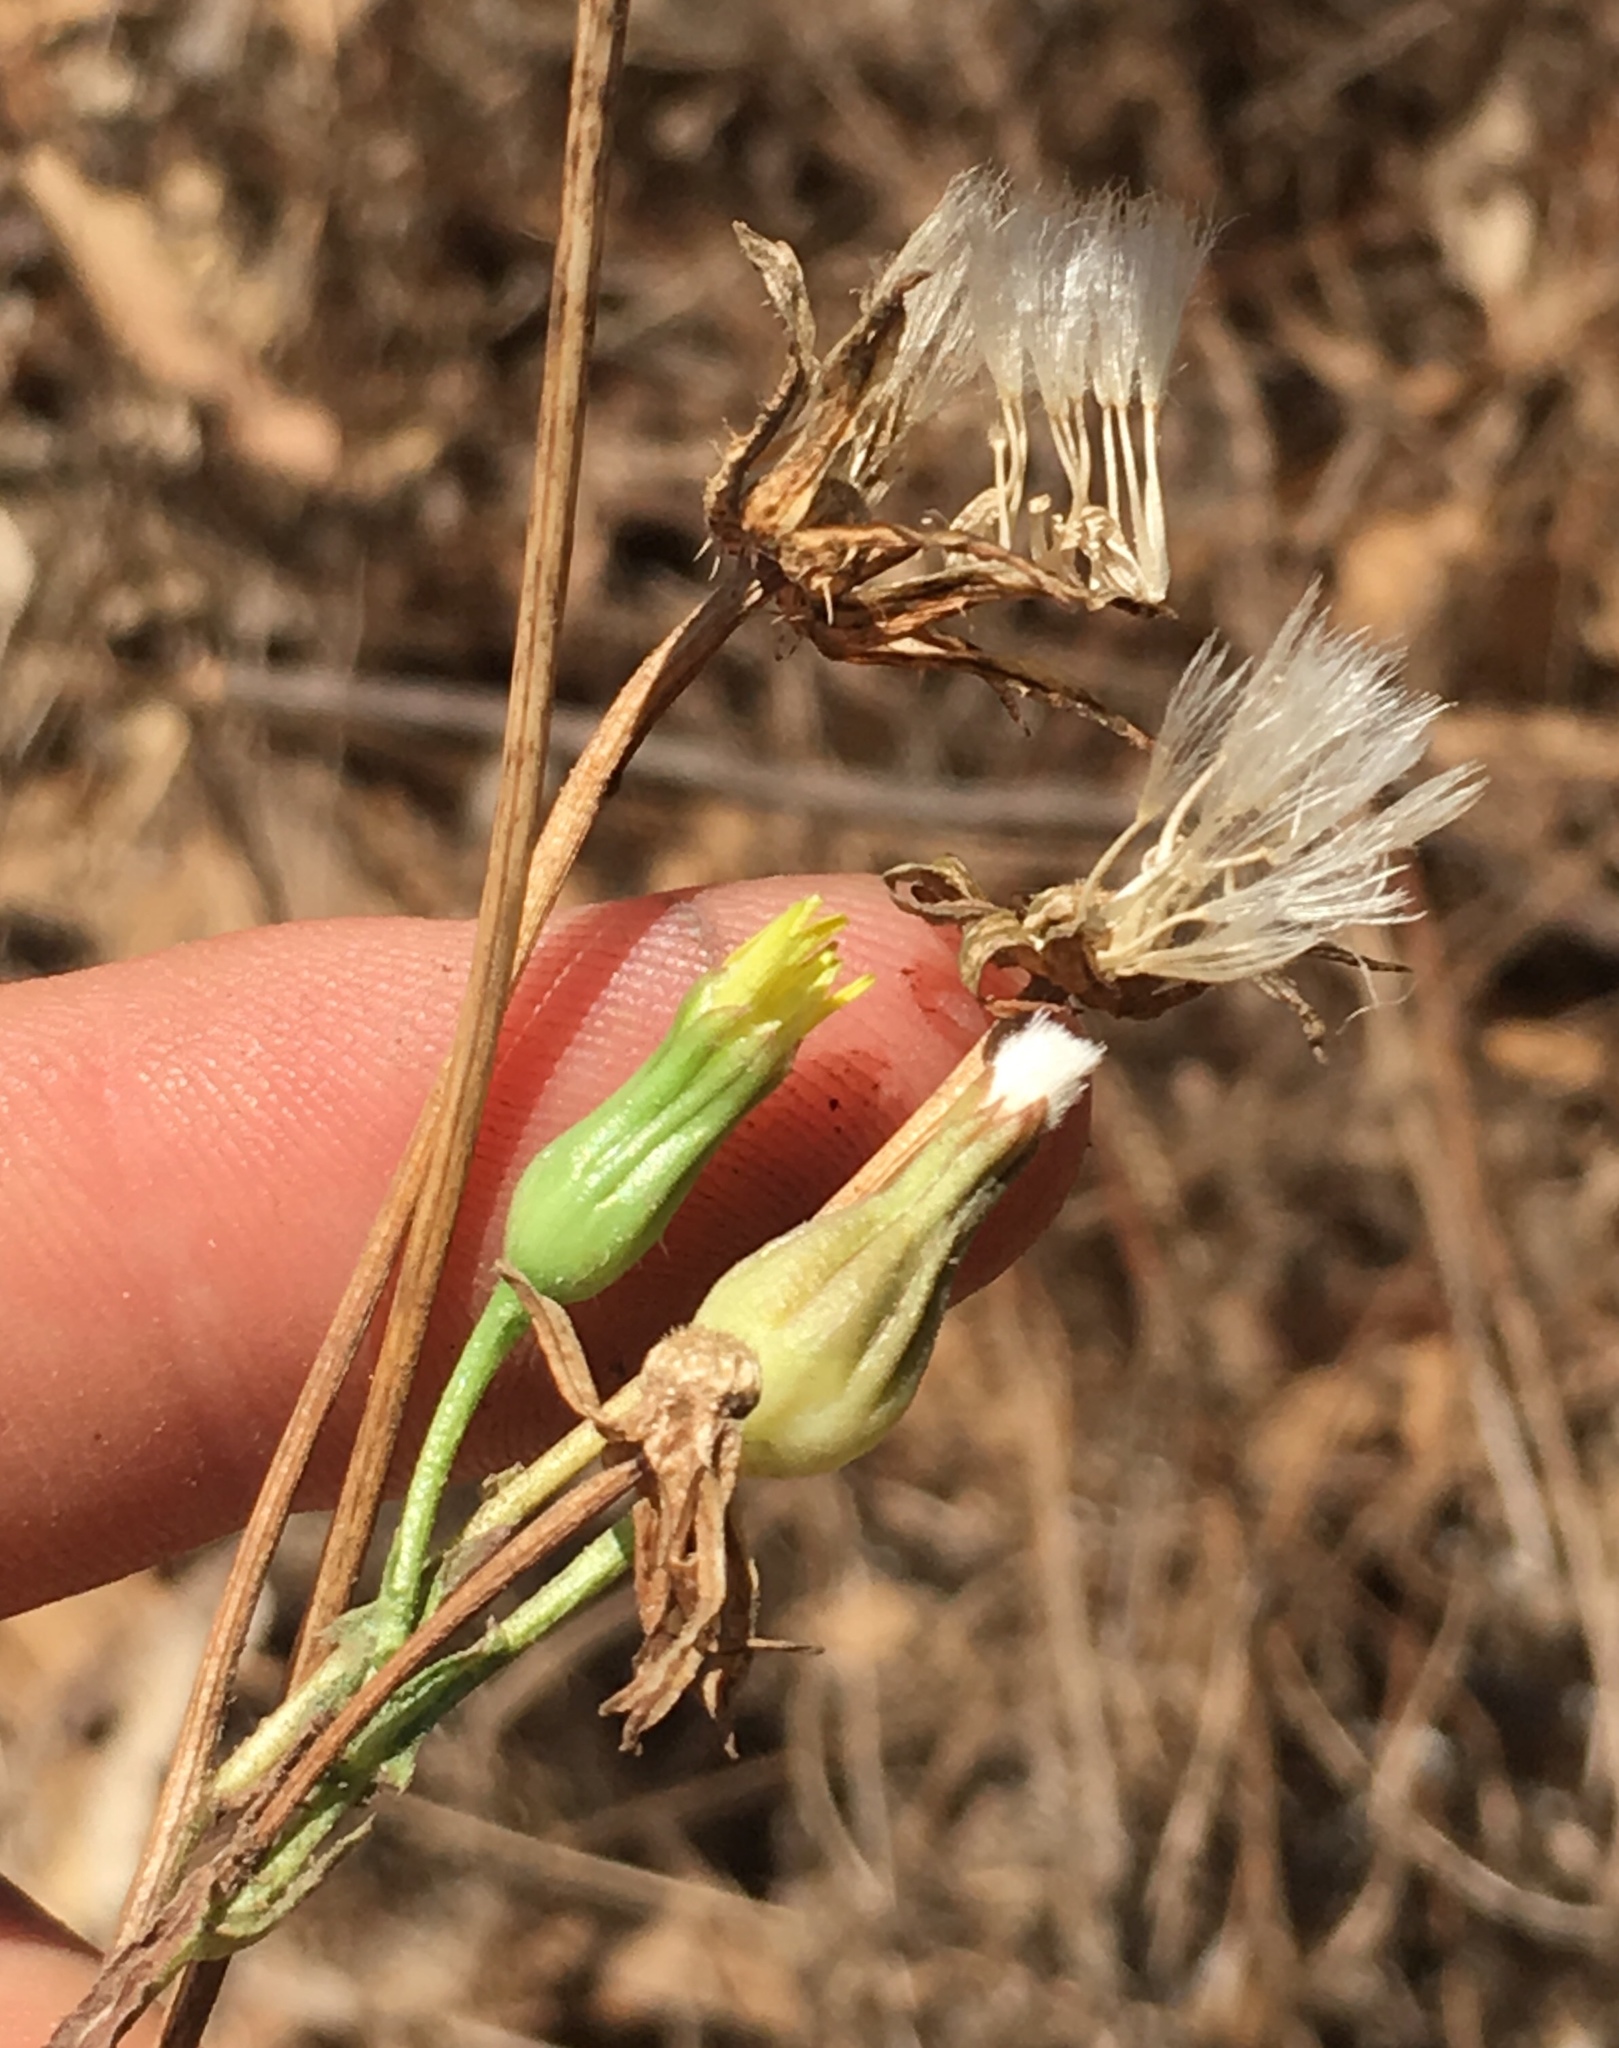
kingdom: Plantae
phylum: Tracheophyta
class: Magnoliopsida
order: Asterales
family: Asteraceae
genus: Urospermum
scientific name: Urospermum picroides
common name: False hawkbit
